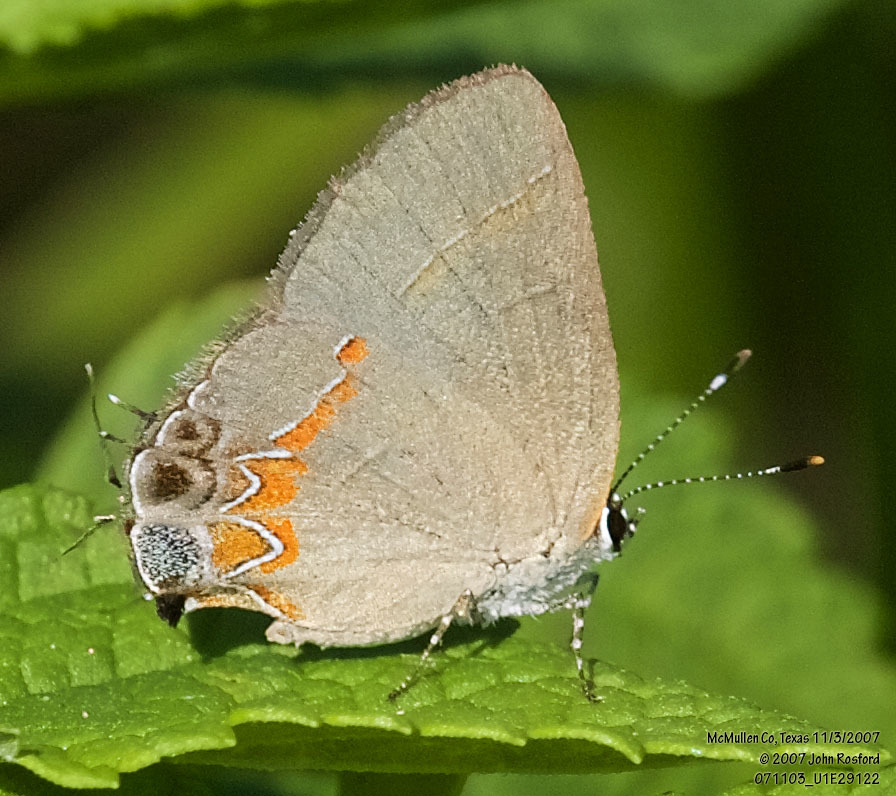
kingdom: Animalia
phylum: Arthropoda
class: Insecta
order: Lepidoptera
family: Lycaenidae
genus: Calycopis
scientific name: Calycopis isobeon
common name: Dusky-blue groundstreak
